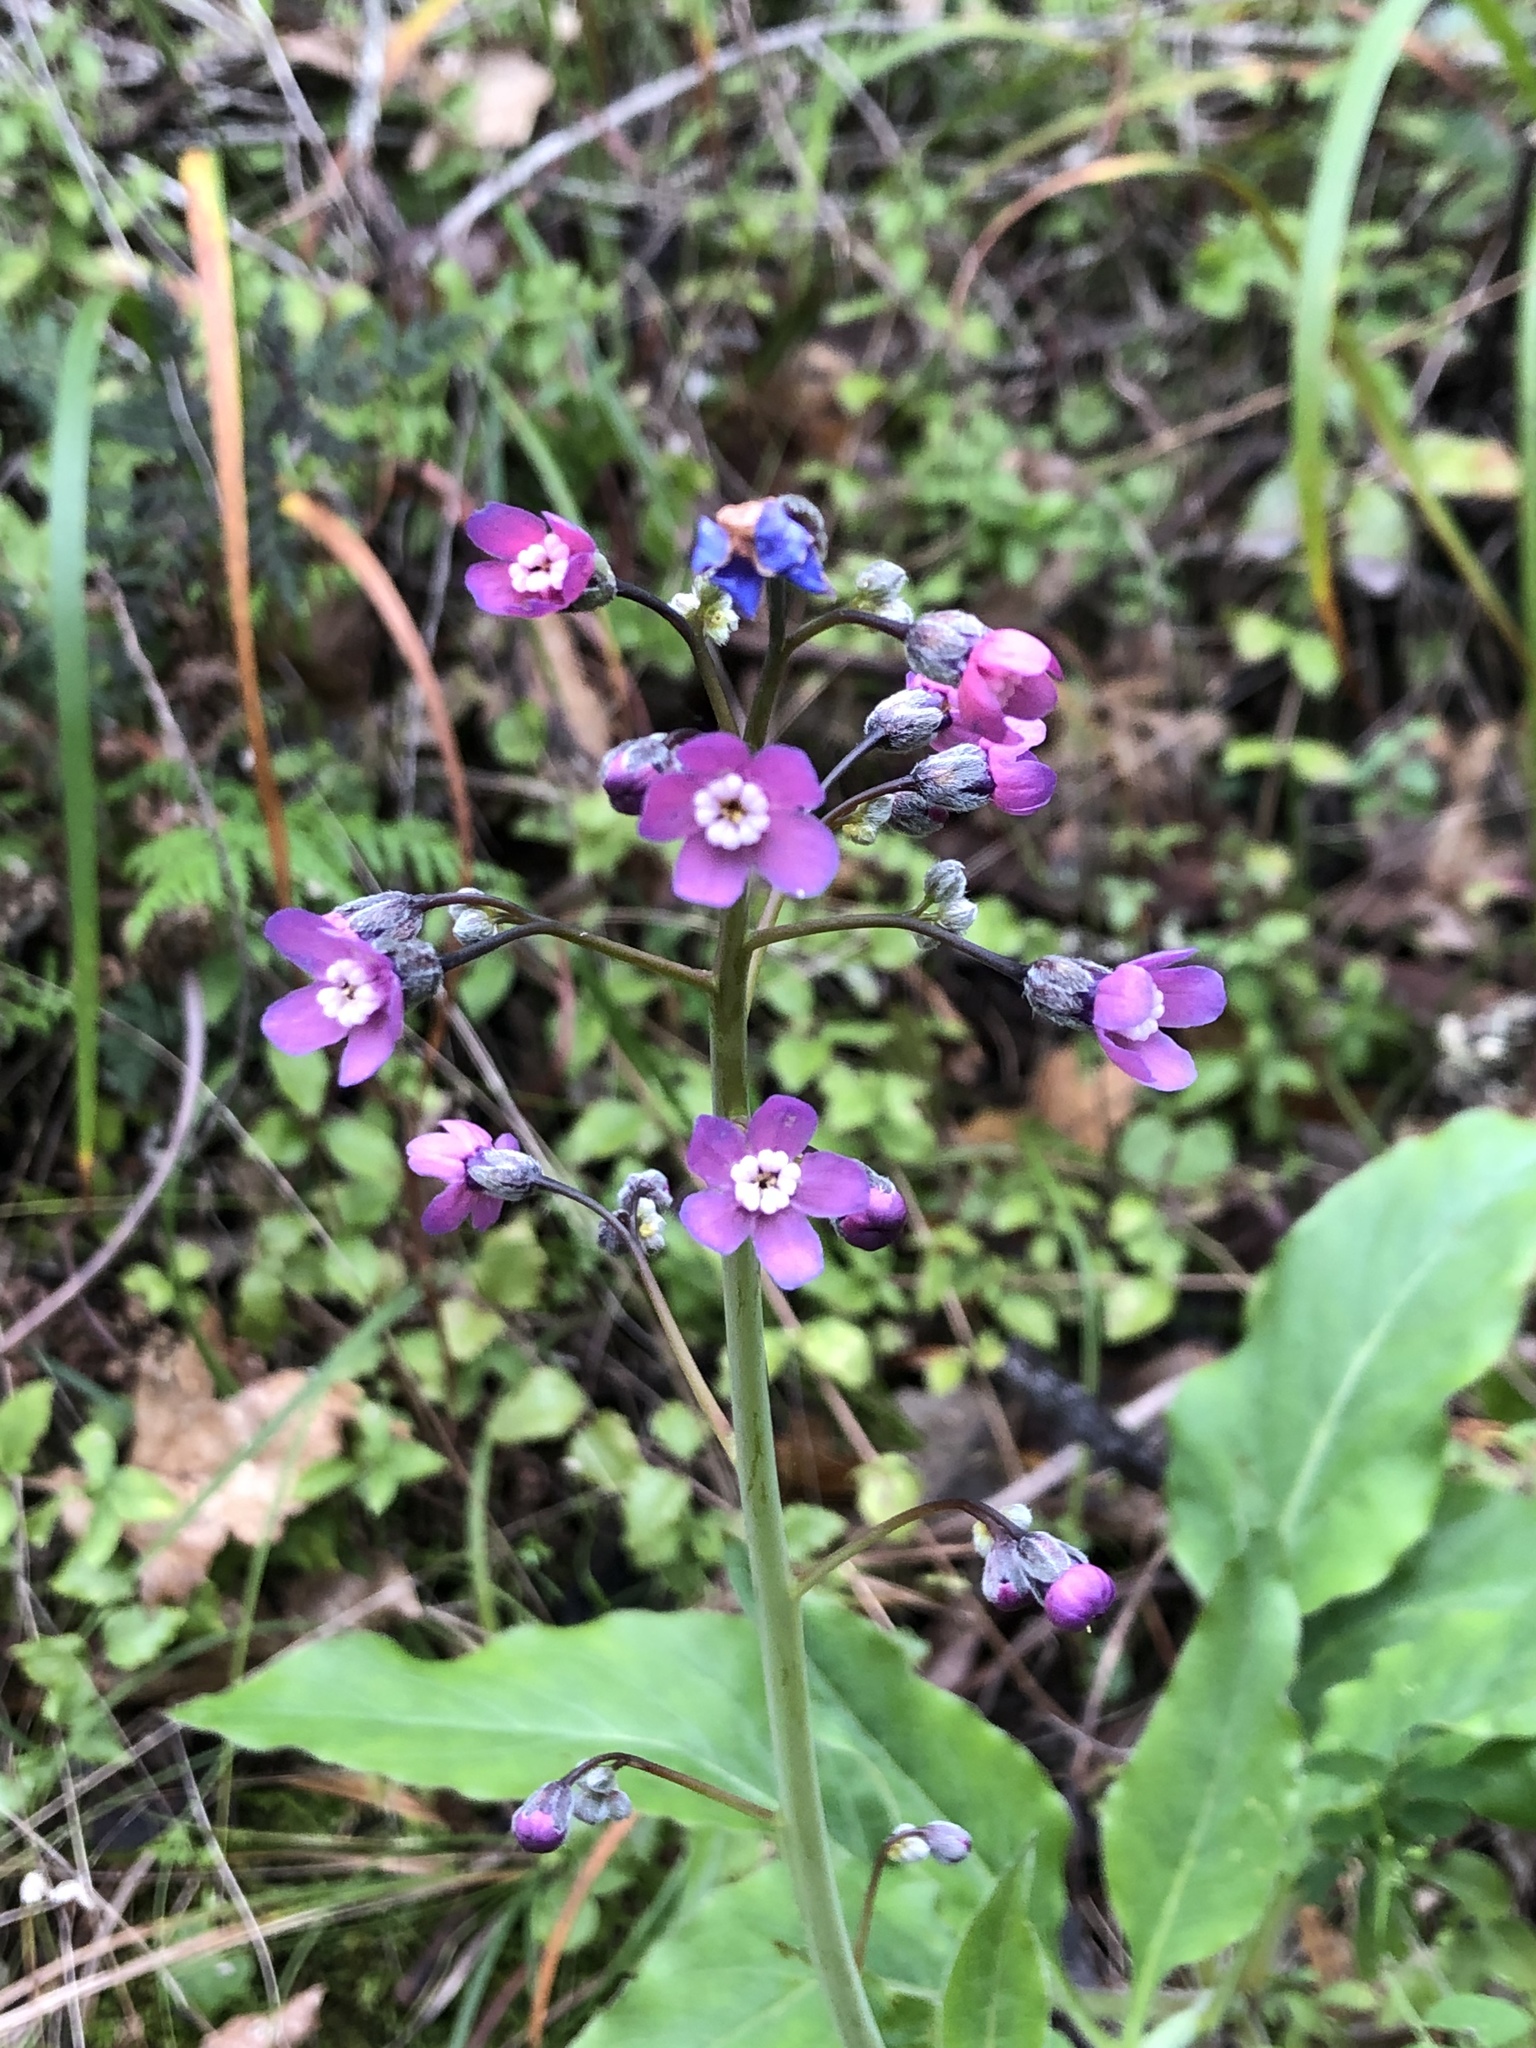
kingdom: Plantae
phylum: Tracheophyta
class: Magnoliopsida
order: Boraginales
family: Boraginaceae
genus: Adelinia
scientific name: Adelinia grande
